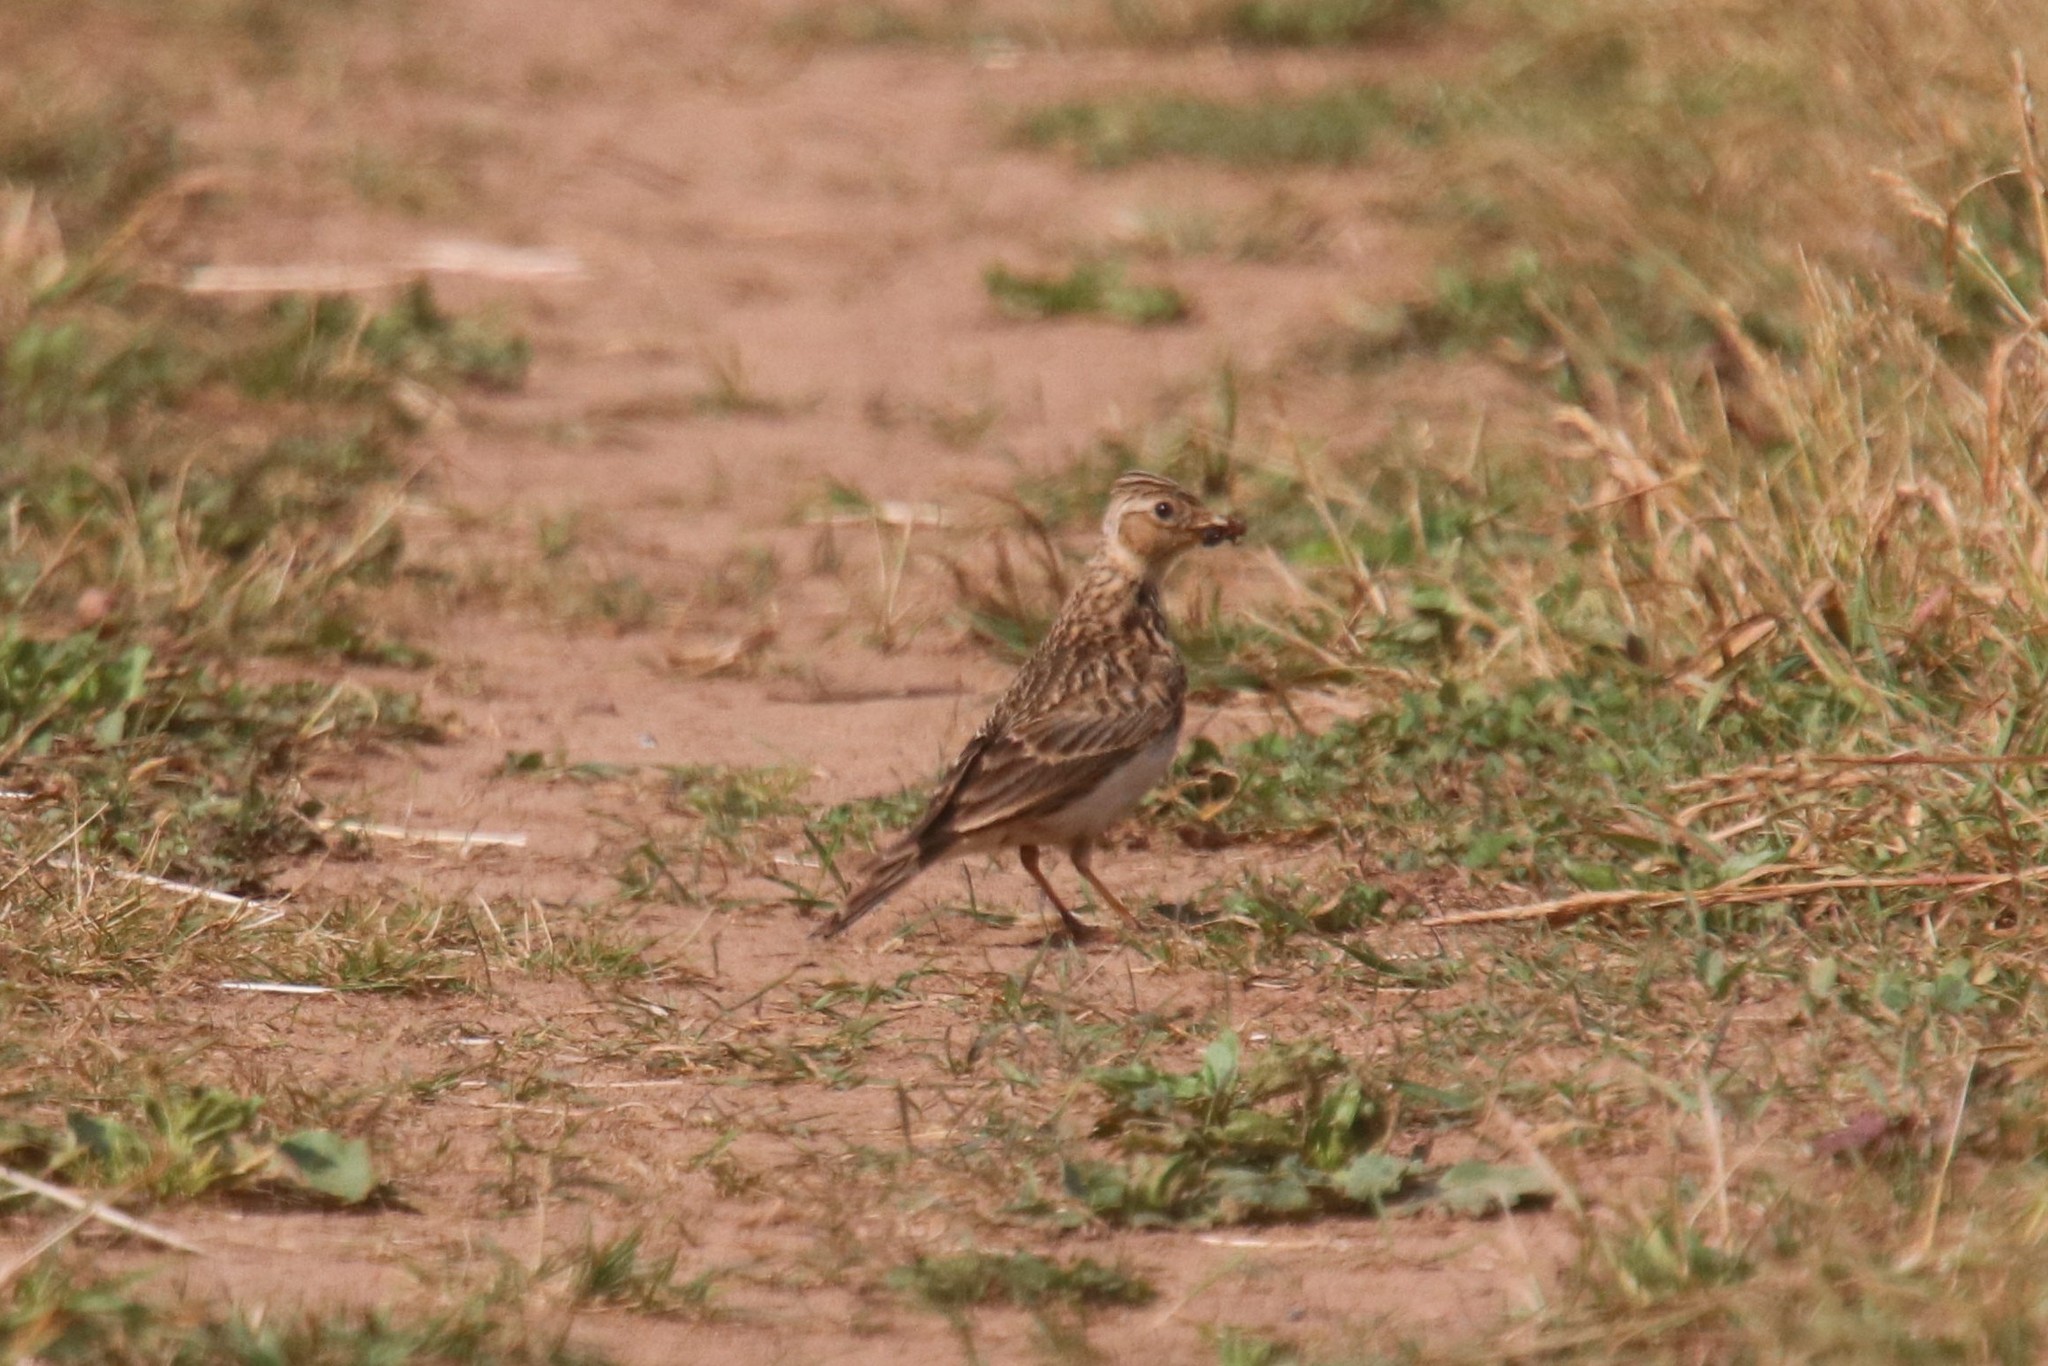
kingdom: Animalia
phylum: Chordata
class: Aves
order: Passeriformes
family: Alaudidae
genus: Alauda
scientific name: Alauda arvensis
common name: Eurasian skylark
